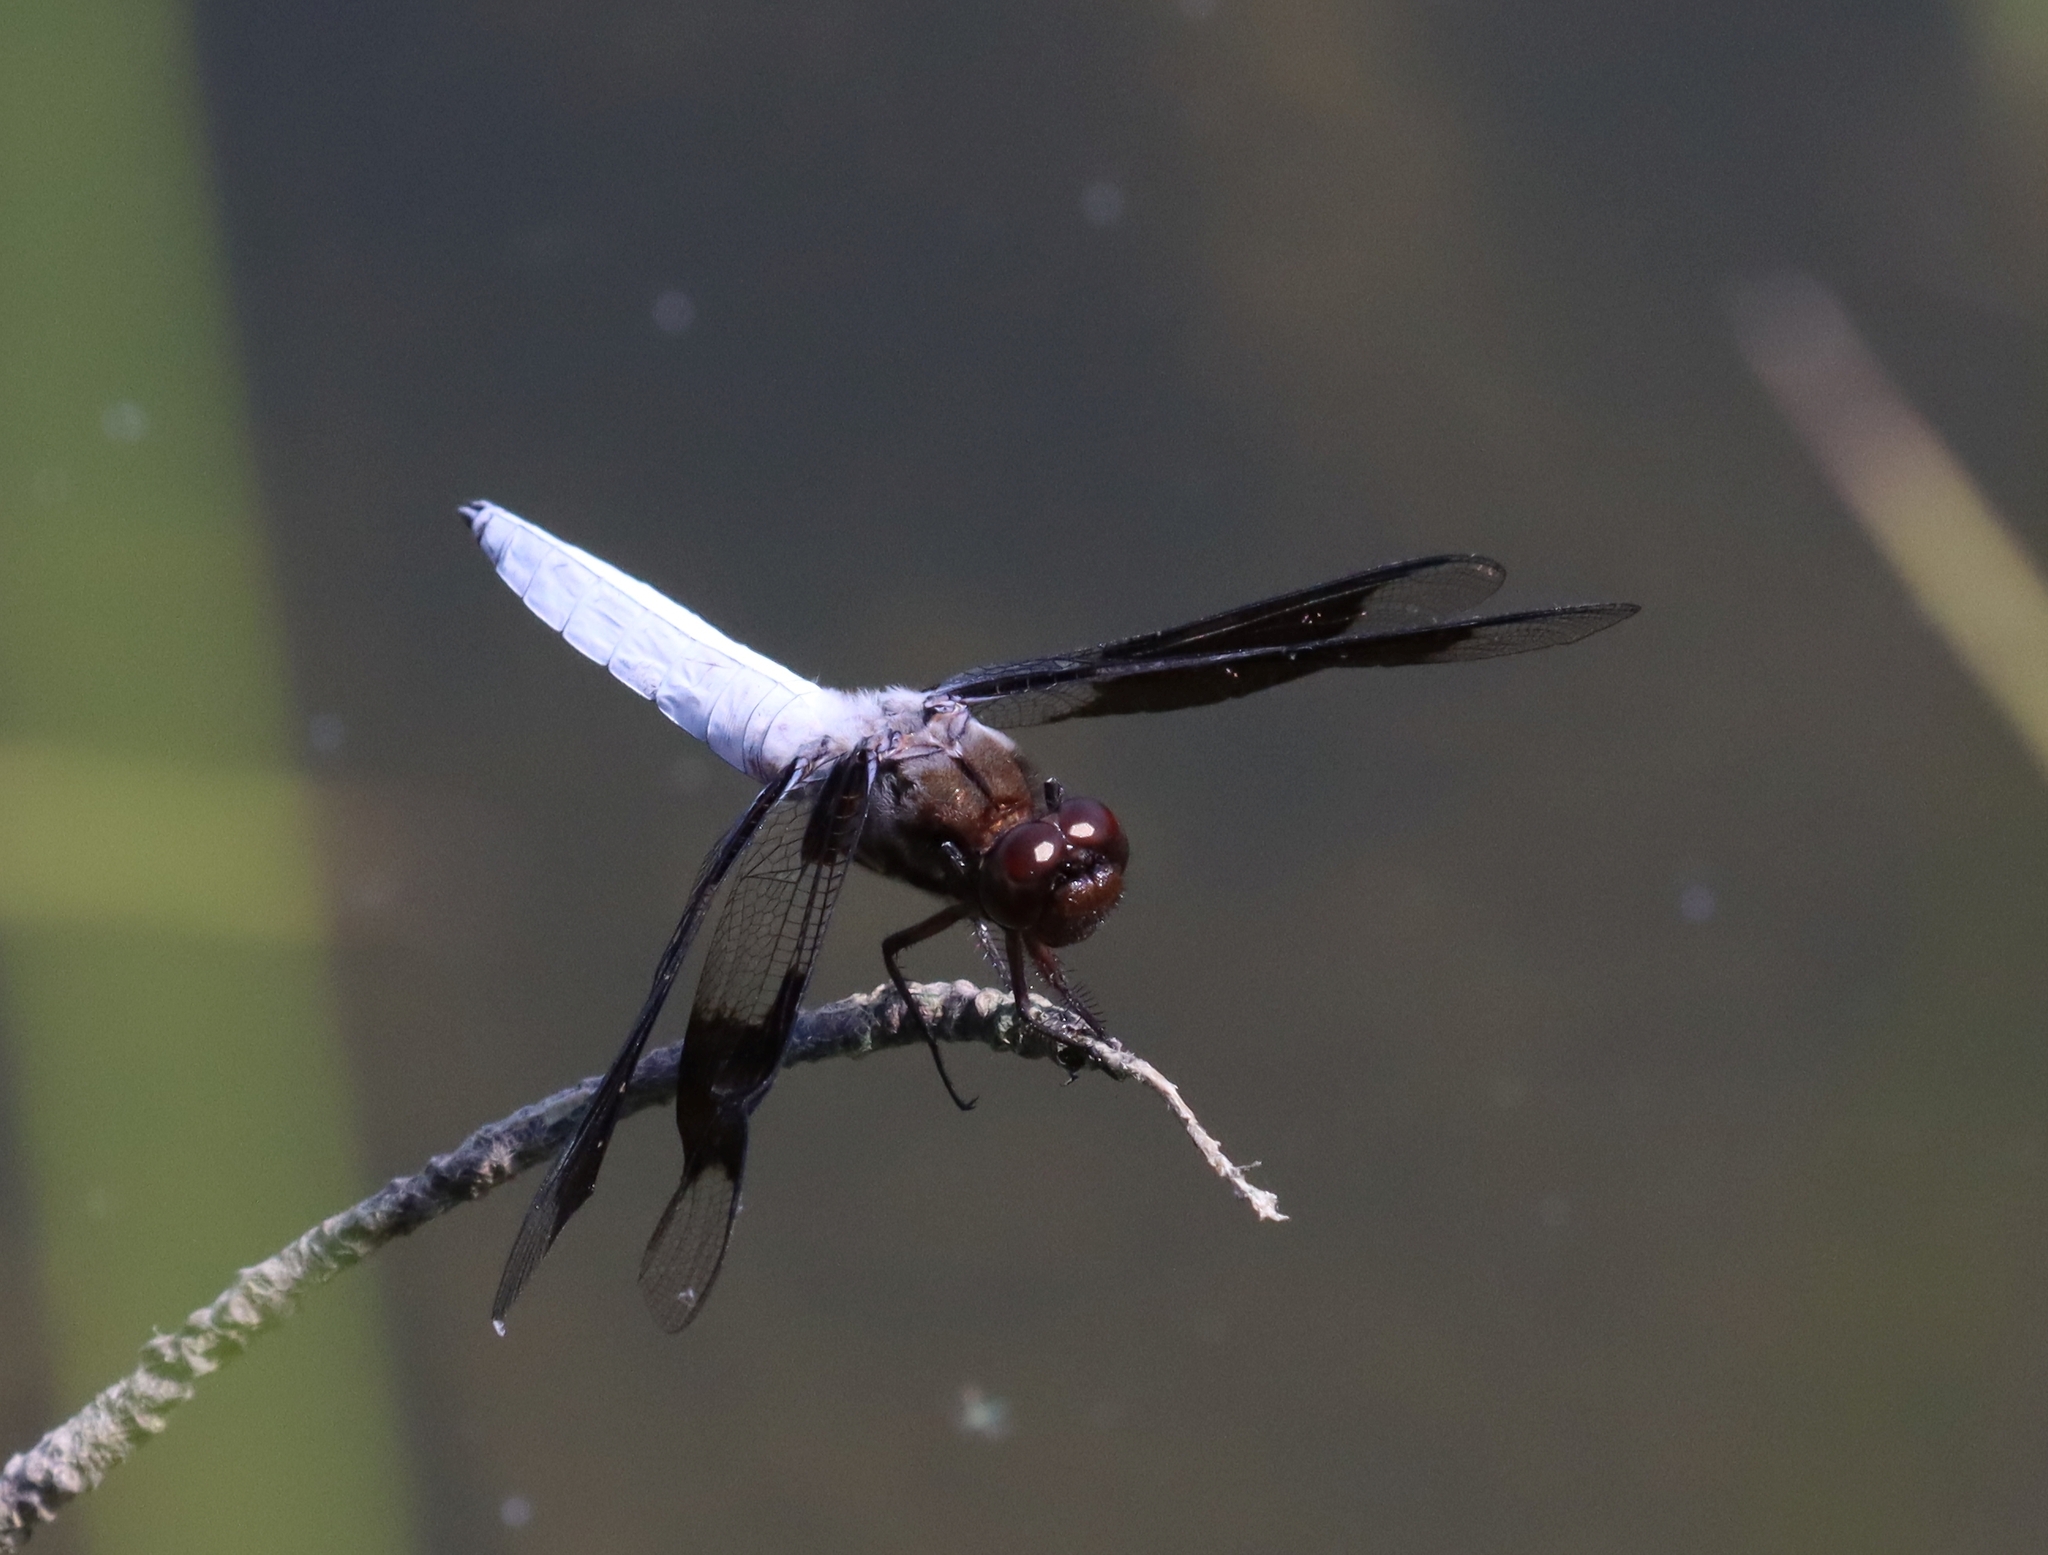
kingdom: Animalia
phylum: Arthropoda
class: Insecta
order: Odonata
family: Libellulidae
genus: Plathemis
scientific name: Plathemis lydia
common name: Common whitetail
